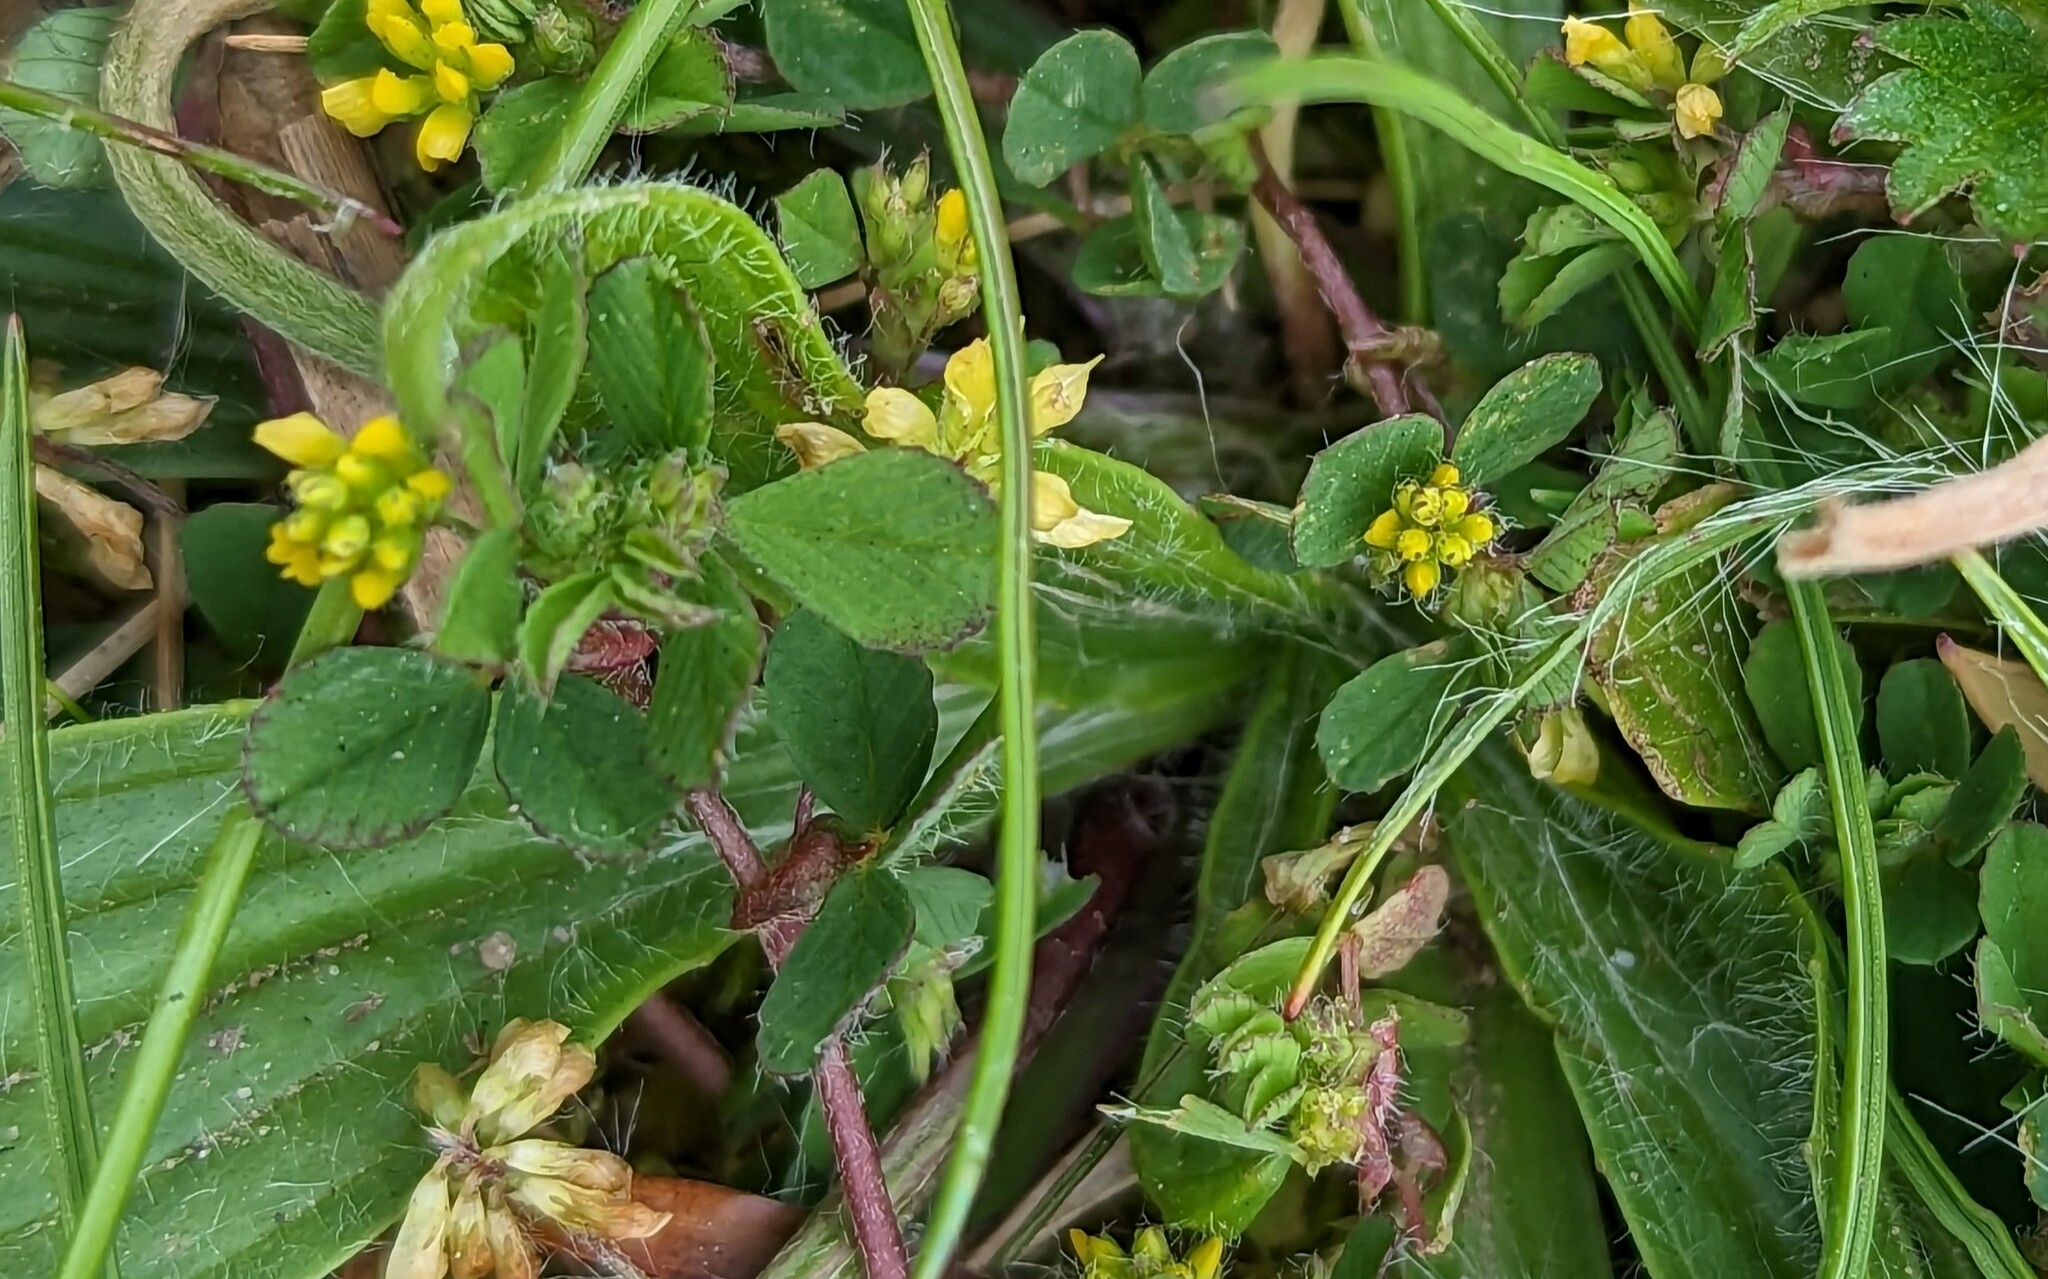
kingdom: Plantae
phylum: Tracheophyta
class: Magnoliopsida
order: Fabales
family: Fabaceae
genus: Trifolium
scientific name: Trifolium dubium
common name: Suckling clover
